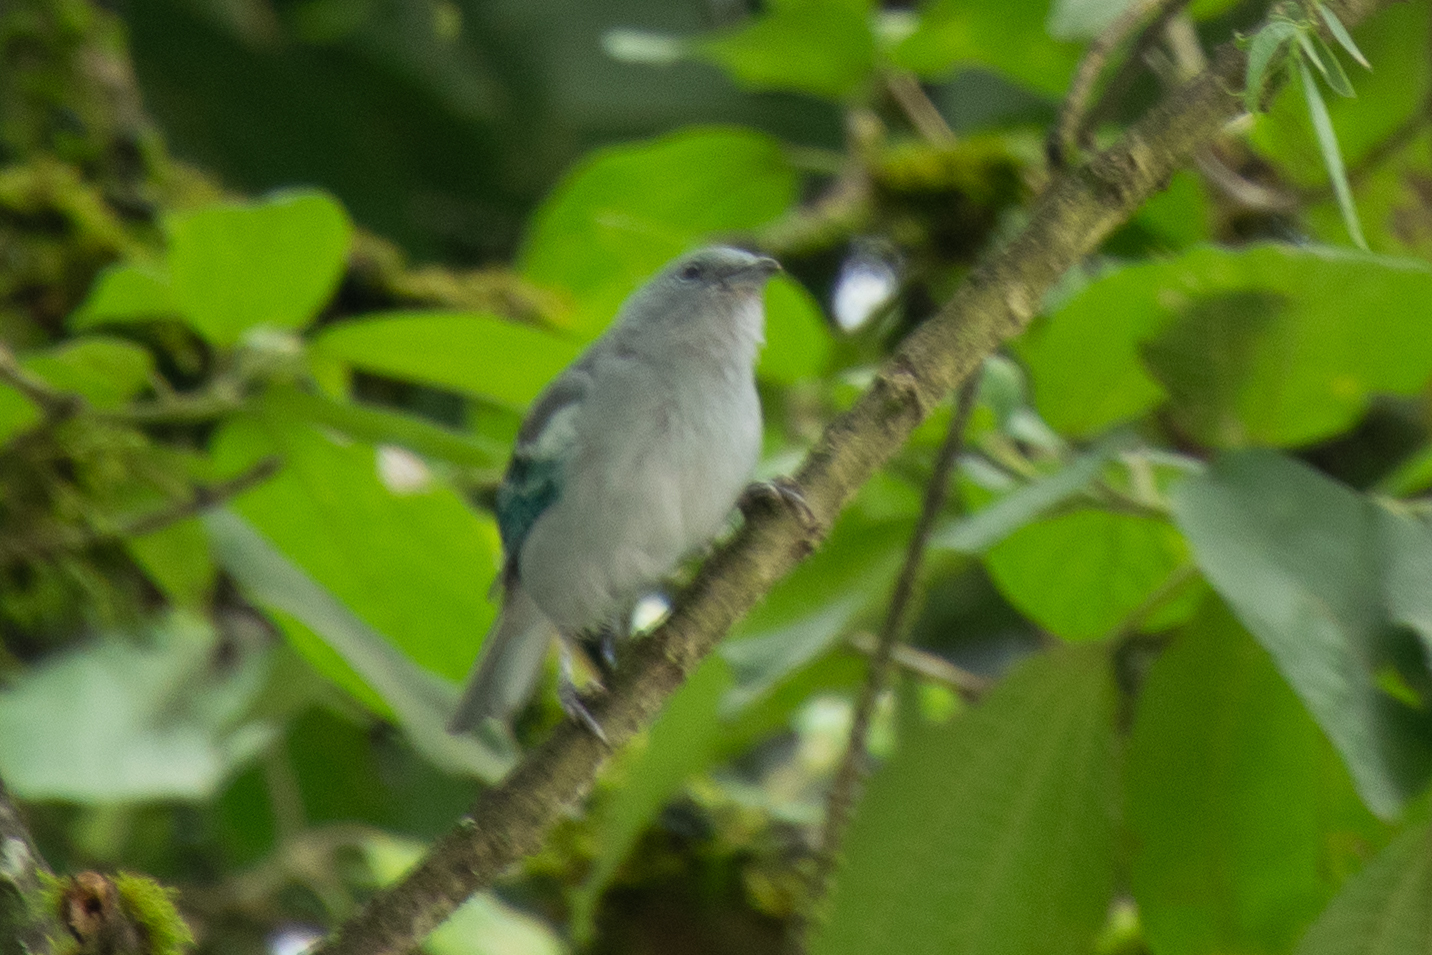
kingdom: Animalia
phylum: Chordata
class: Aves
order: Passeriformes
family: Thraupidae
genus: Thraupis
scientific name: Thraupis episcopus
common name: Blue-grey tanager
